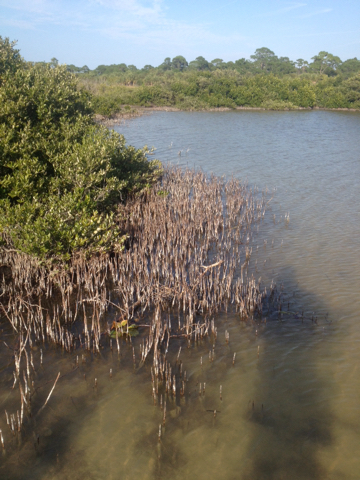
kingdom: Plantae
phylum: Tracheophyta
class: Magnoliopsida
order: Lamiales
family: Acanthaceae
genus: Avicennia
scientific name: Avicennia germinans
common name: Black mangrove
